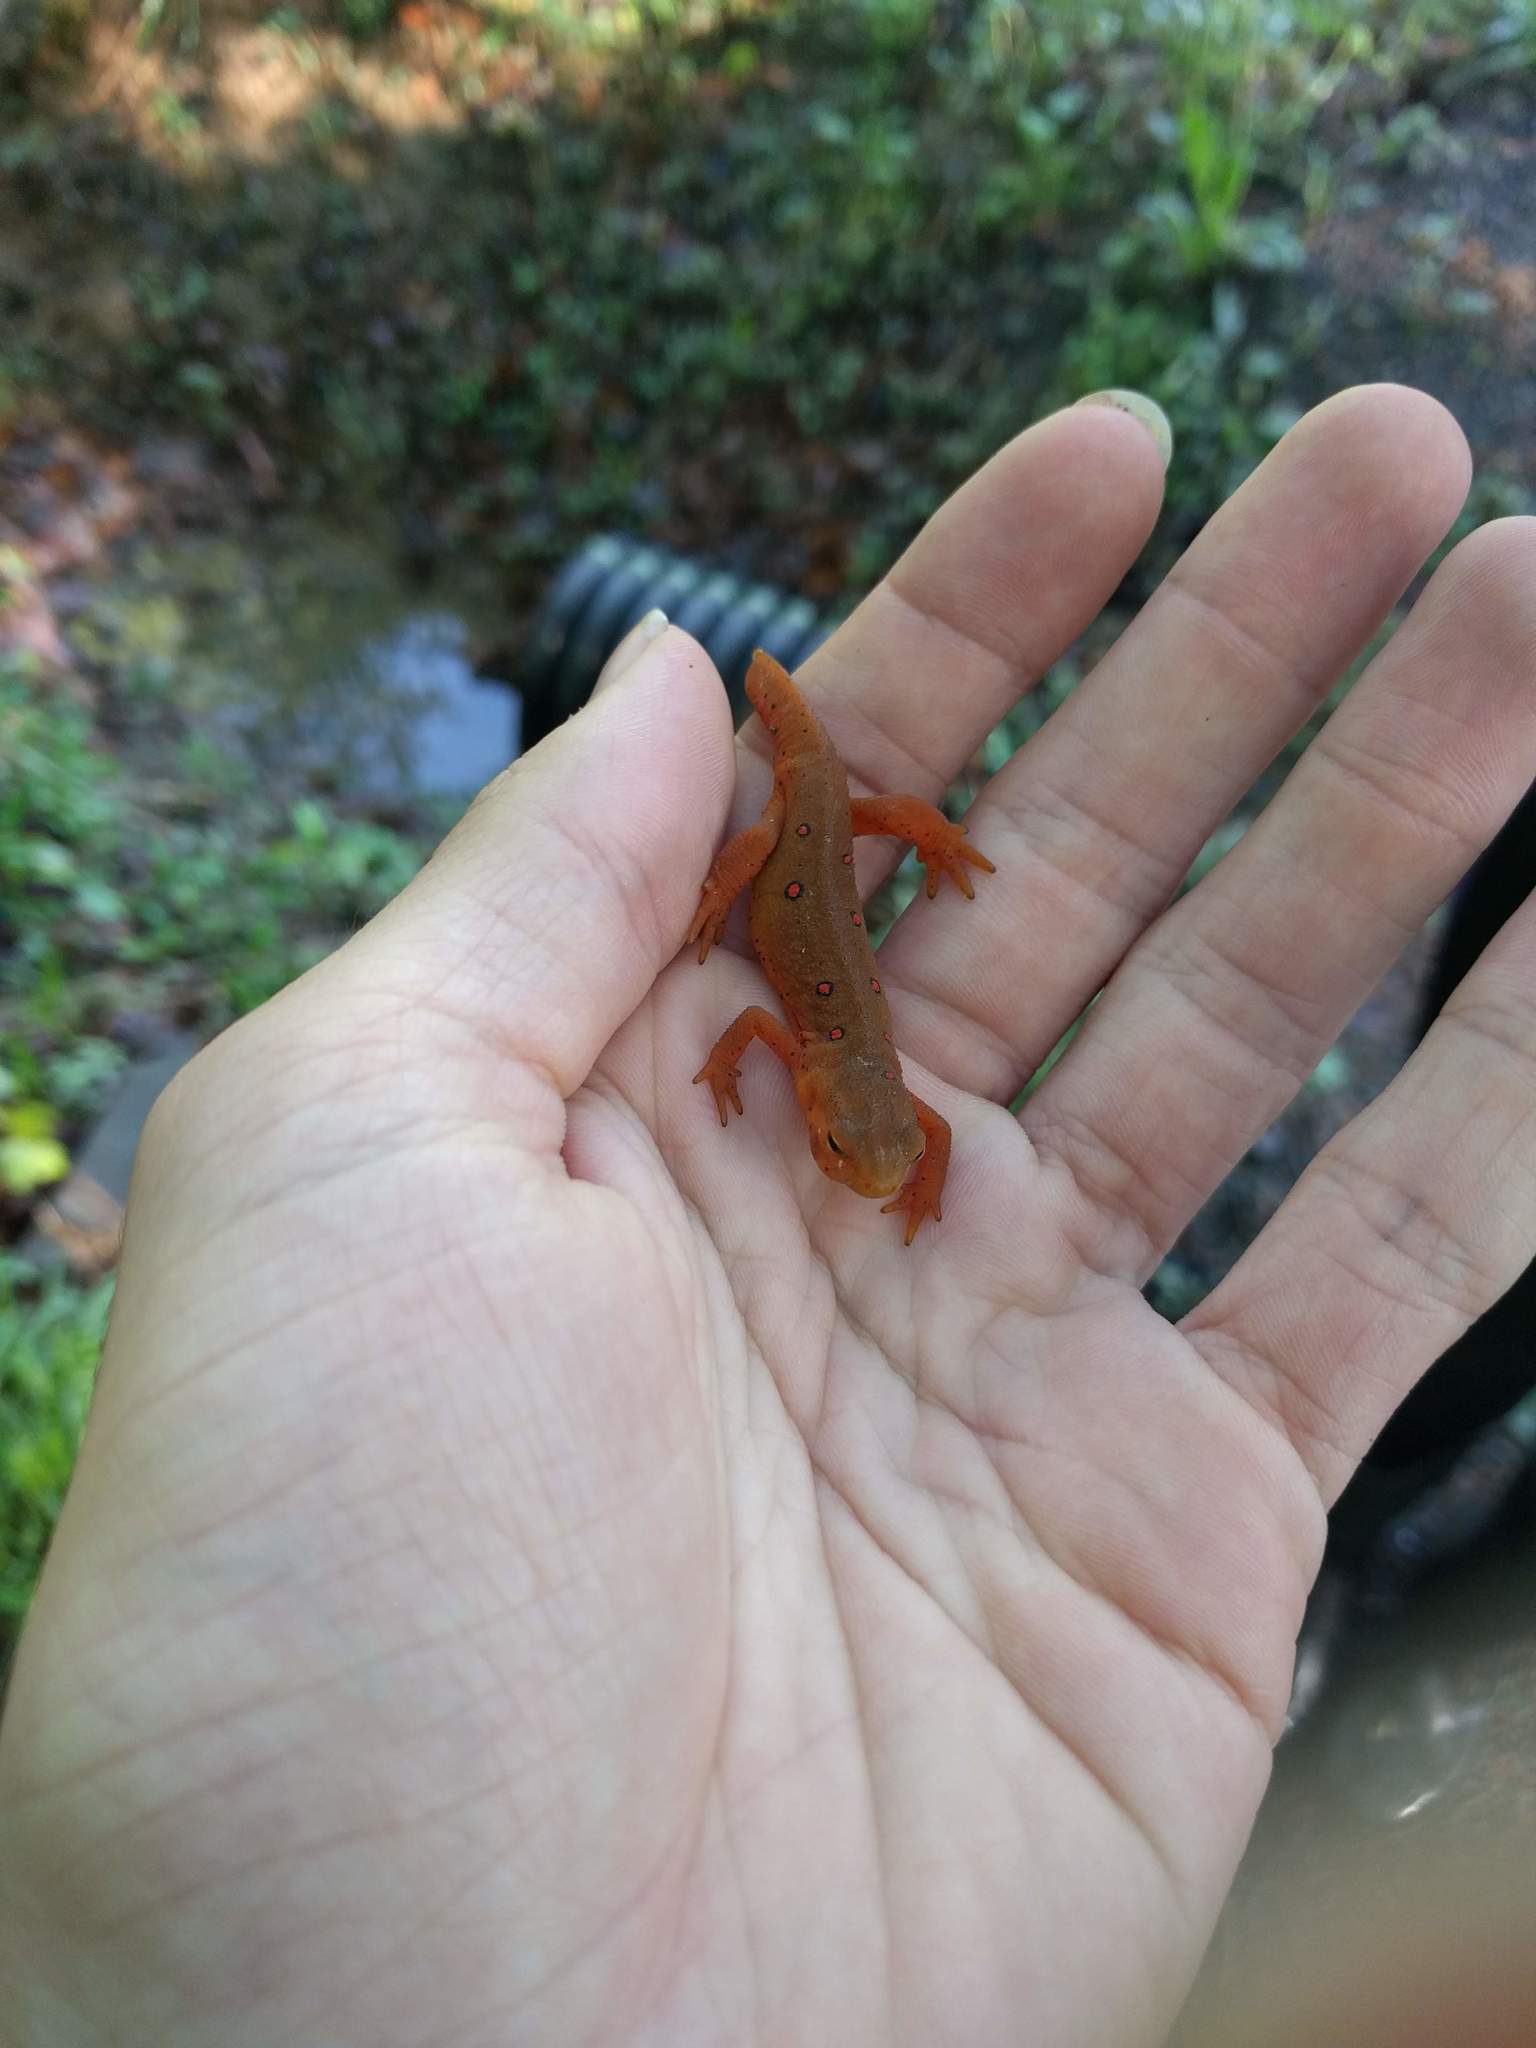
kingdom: Animalia
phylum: Chordata
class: Amphibia
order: Caudata
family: Salamandridae
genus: Notophthalmus
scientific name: Notophthalmus viridescens
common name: Eastern newt
